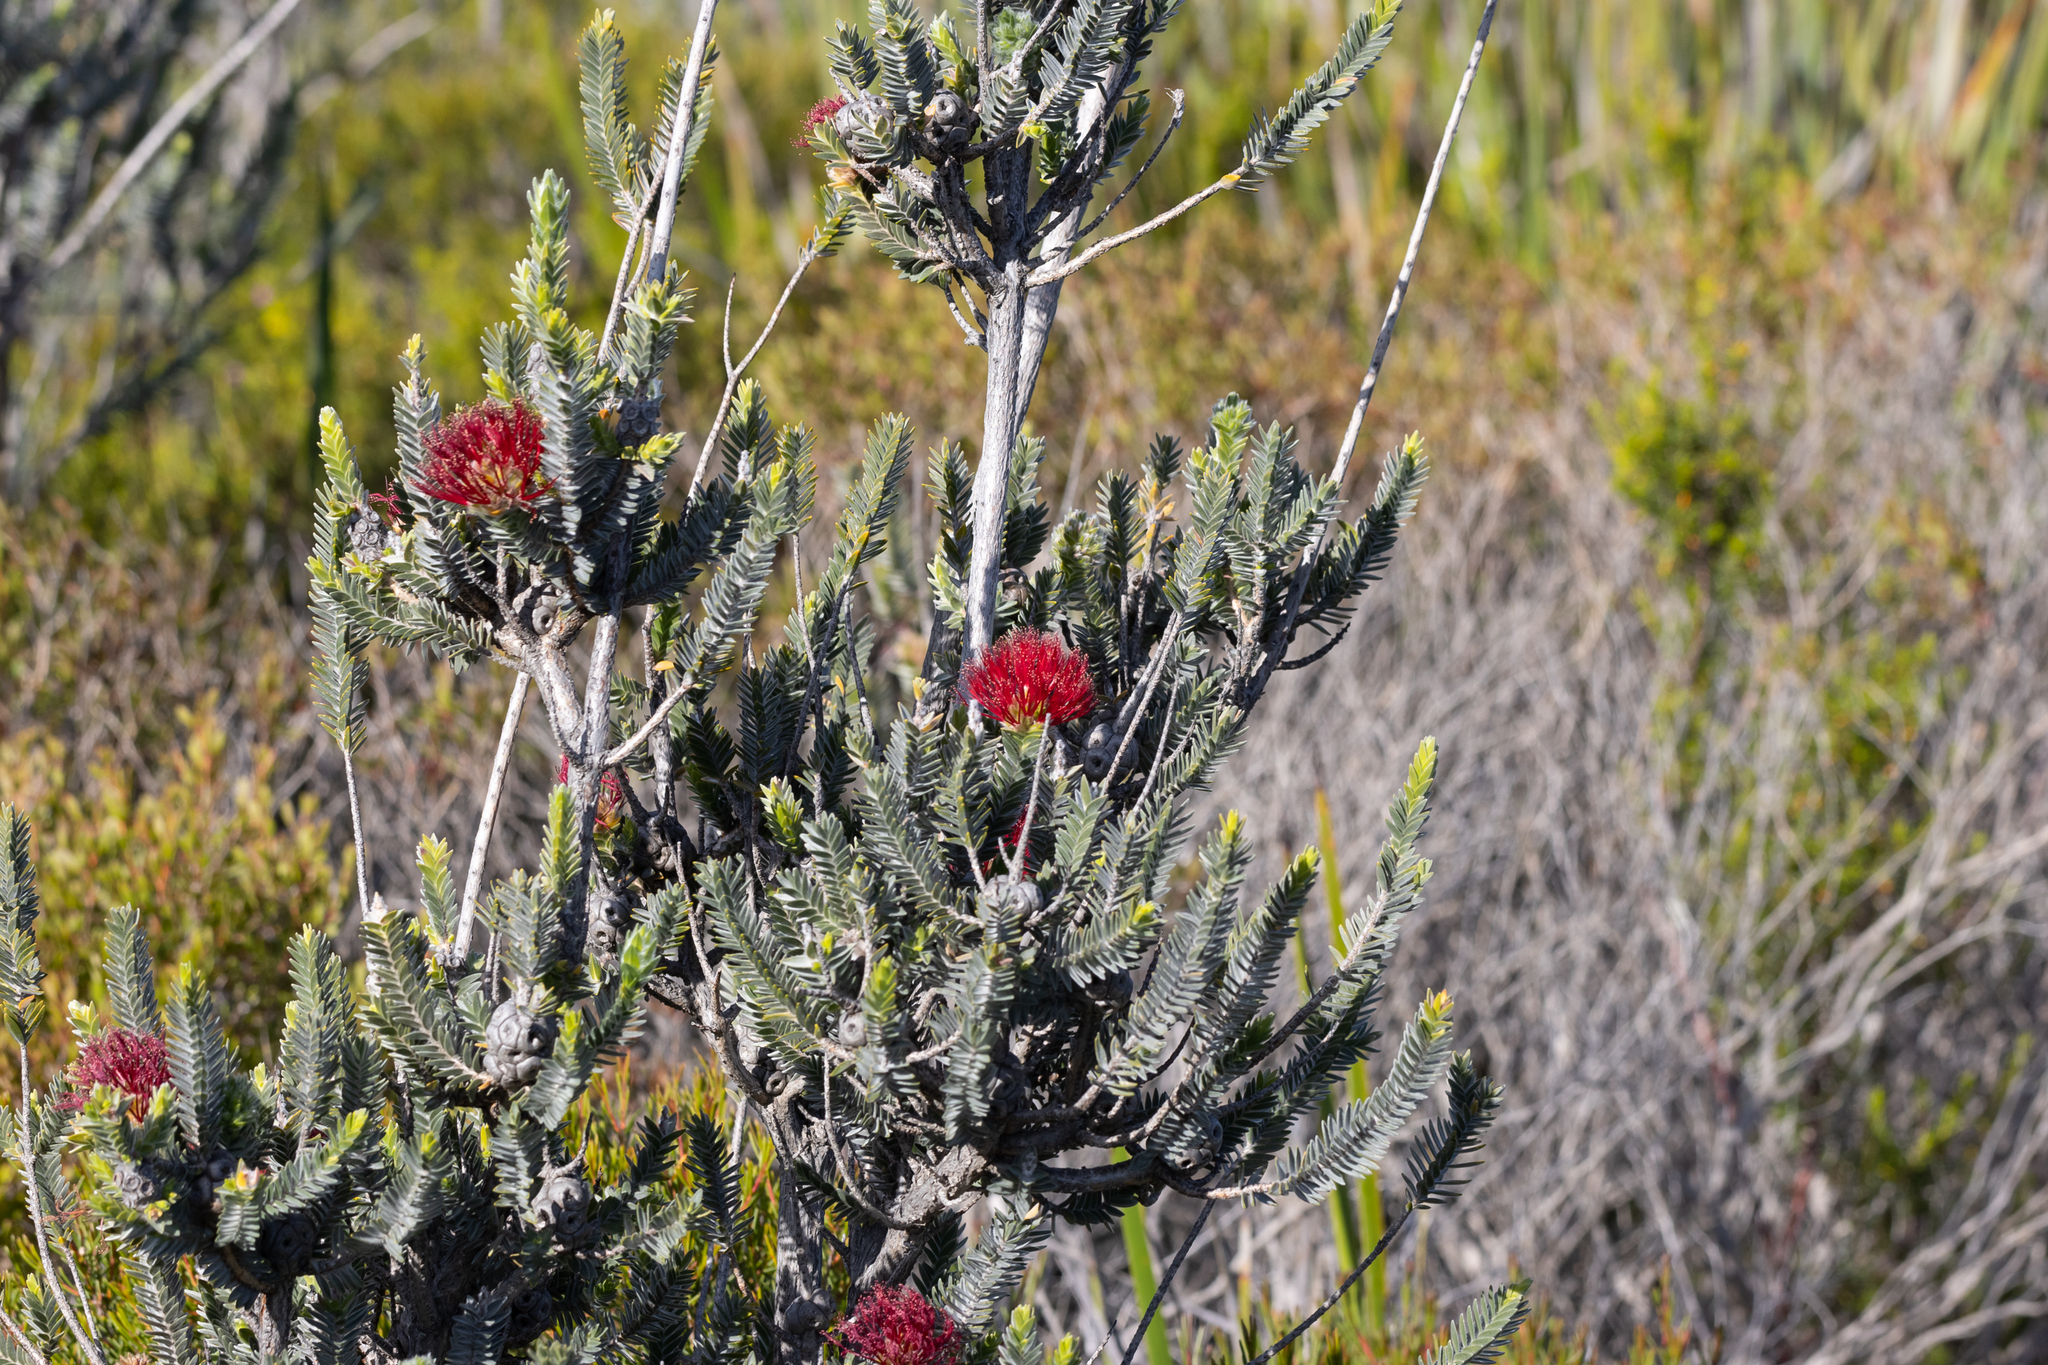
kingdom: Plantae
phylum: Tracheophyta
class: Magnoliopsida
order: Myrtales
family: Myrtaceae
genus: Melaleuca
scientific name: Melaleuca velutina
